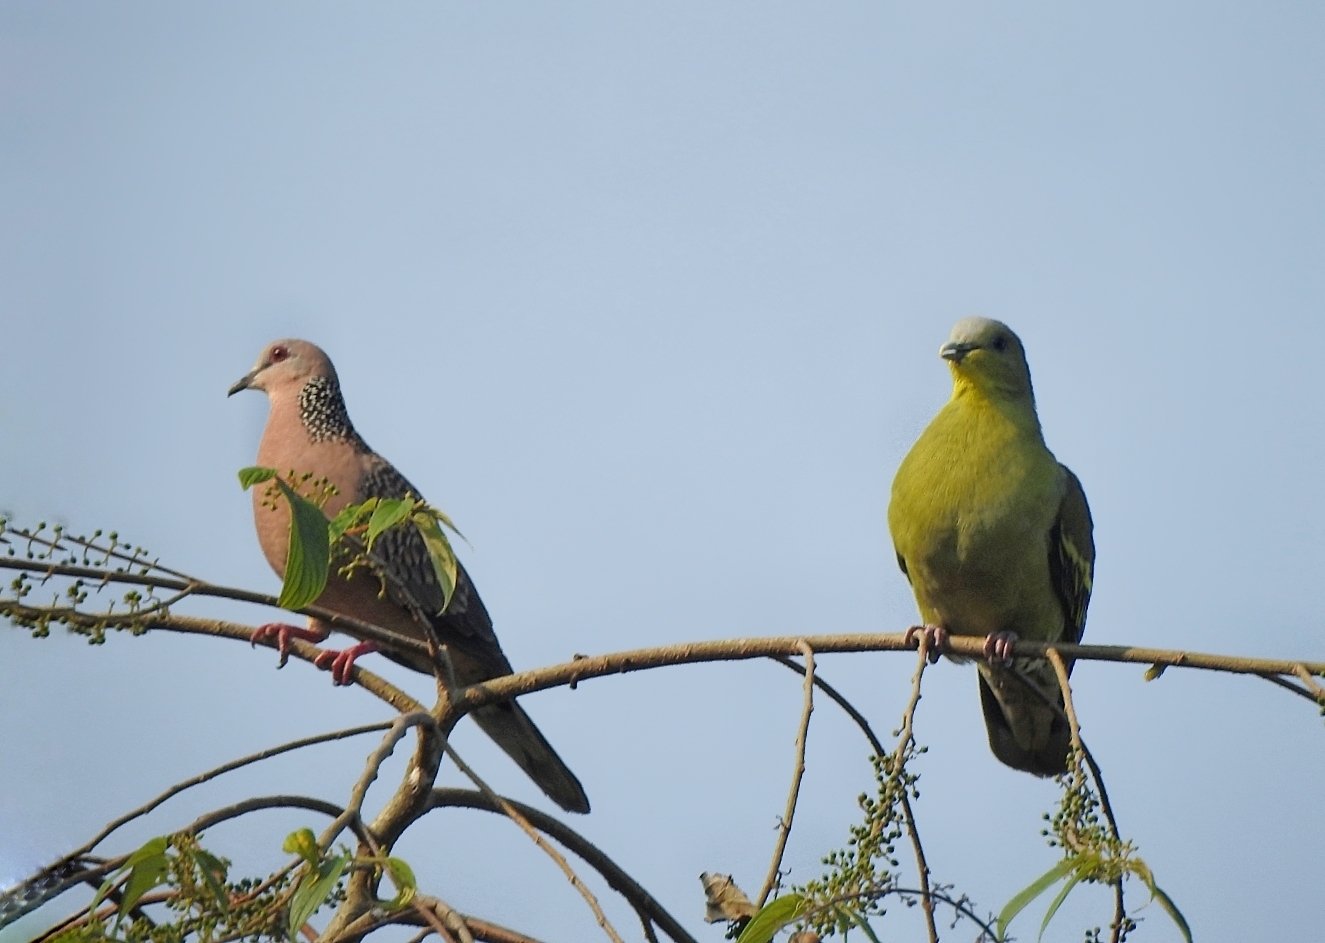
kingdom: Animalia
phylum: Chordata
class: Aves
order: Columbiformes
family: Columbidae
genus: Treron
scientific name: Treron affinis
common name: Grey-fronted green pigeon
